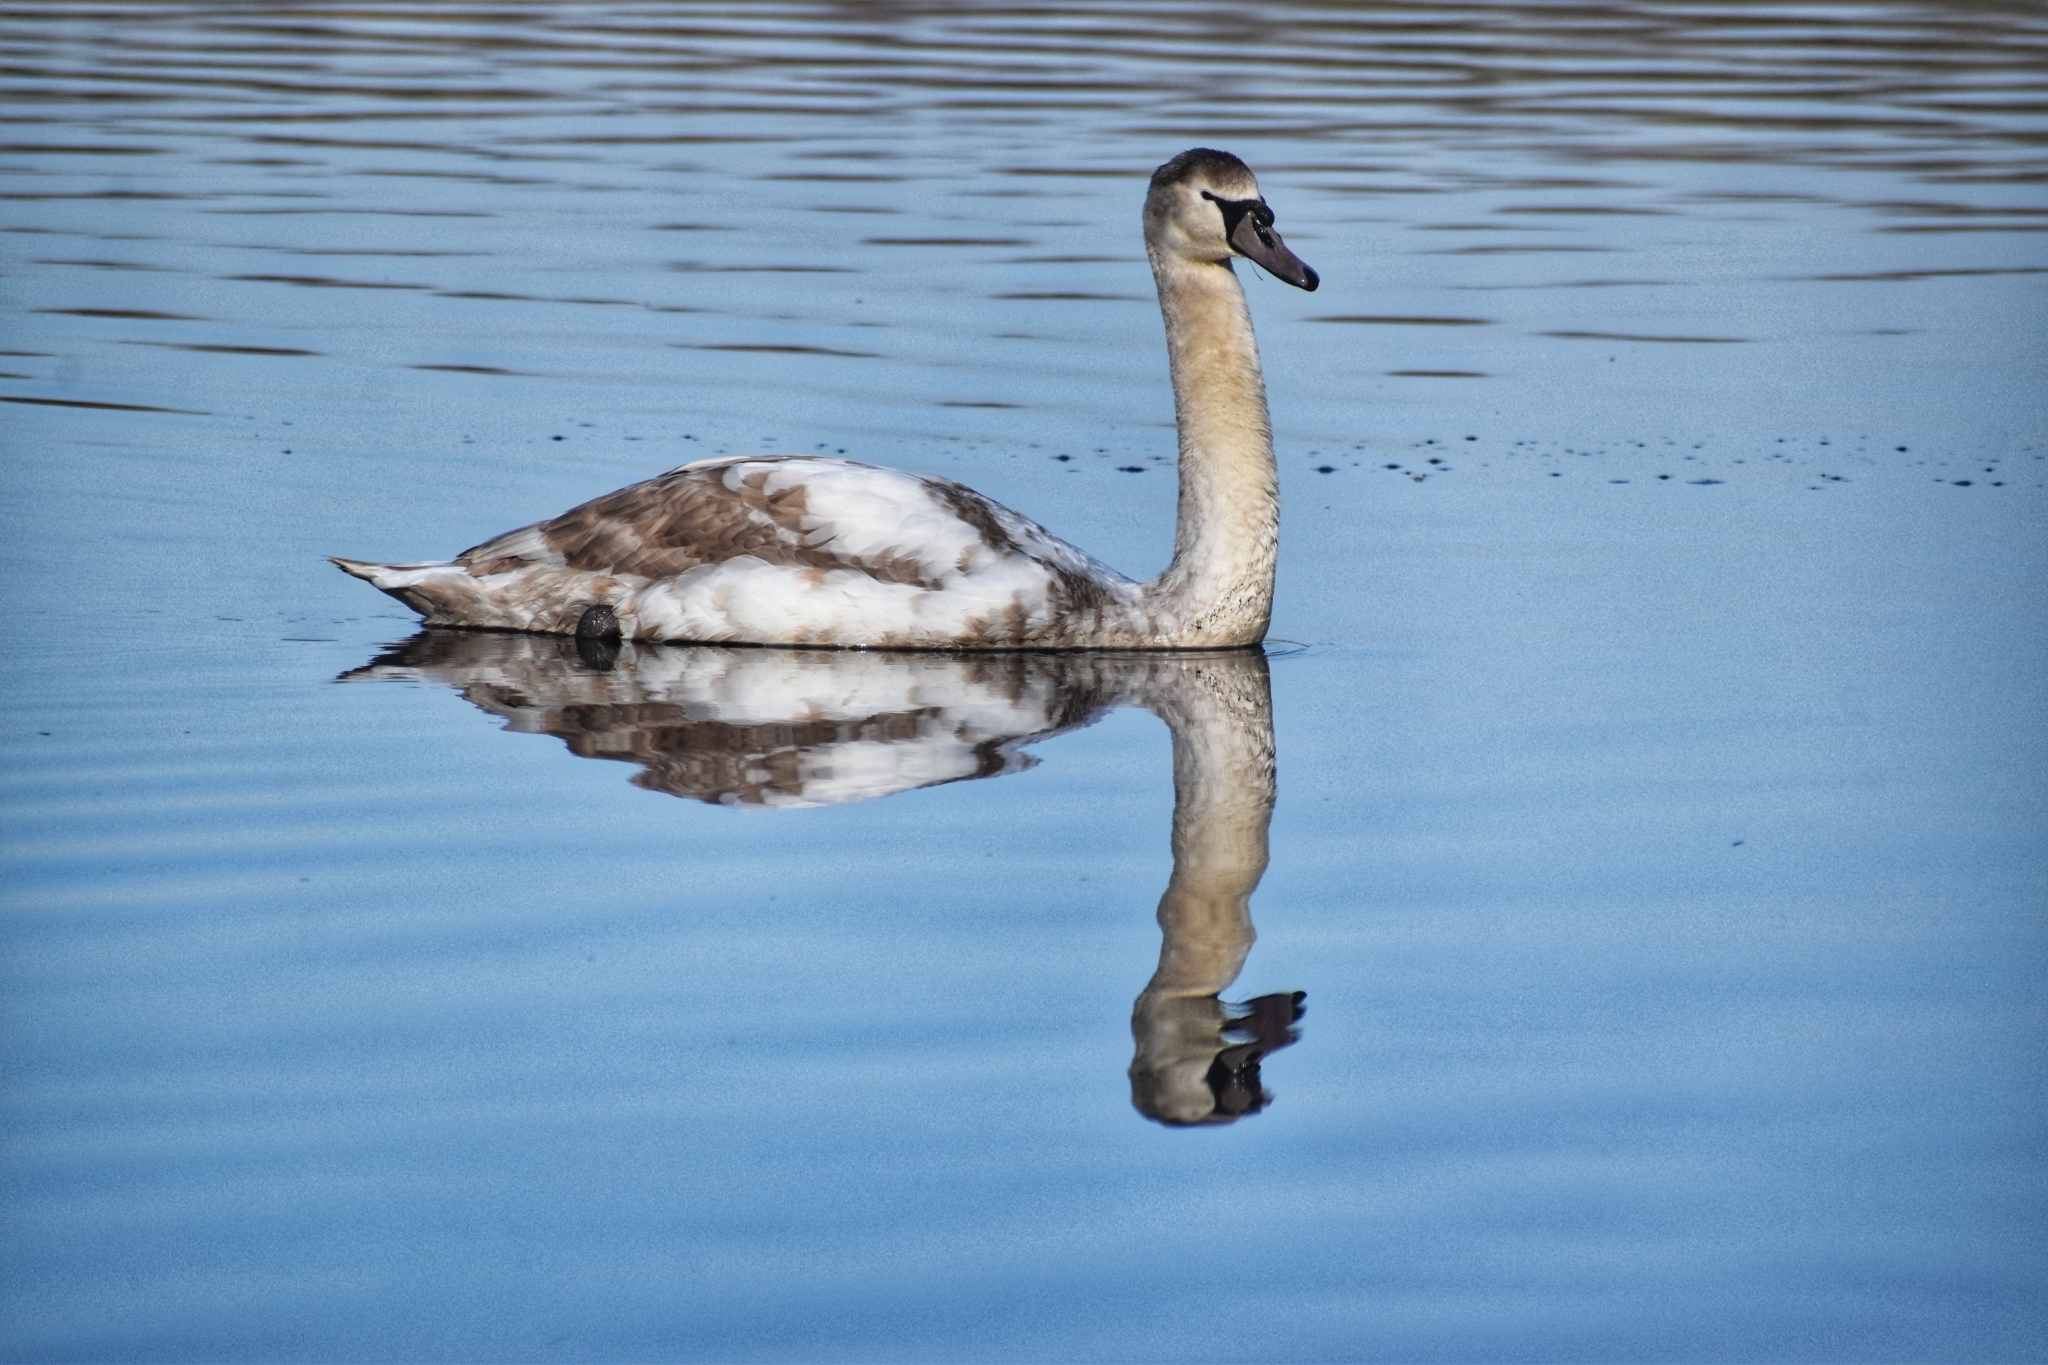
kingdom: Animalia
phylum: Chordata
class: Aves
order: Anseriformes
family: Anatidae
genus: Cygnus
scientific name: Cygnus olor
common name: Mute swan
